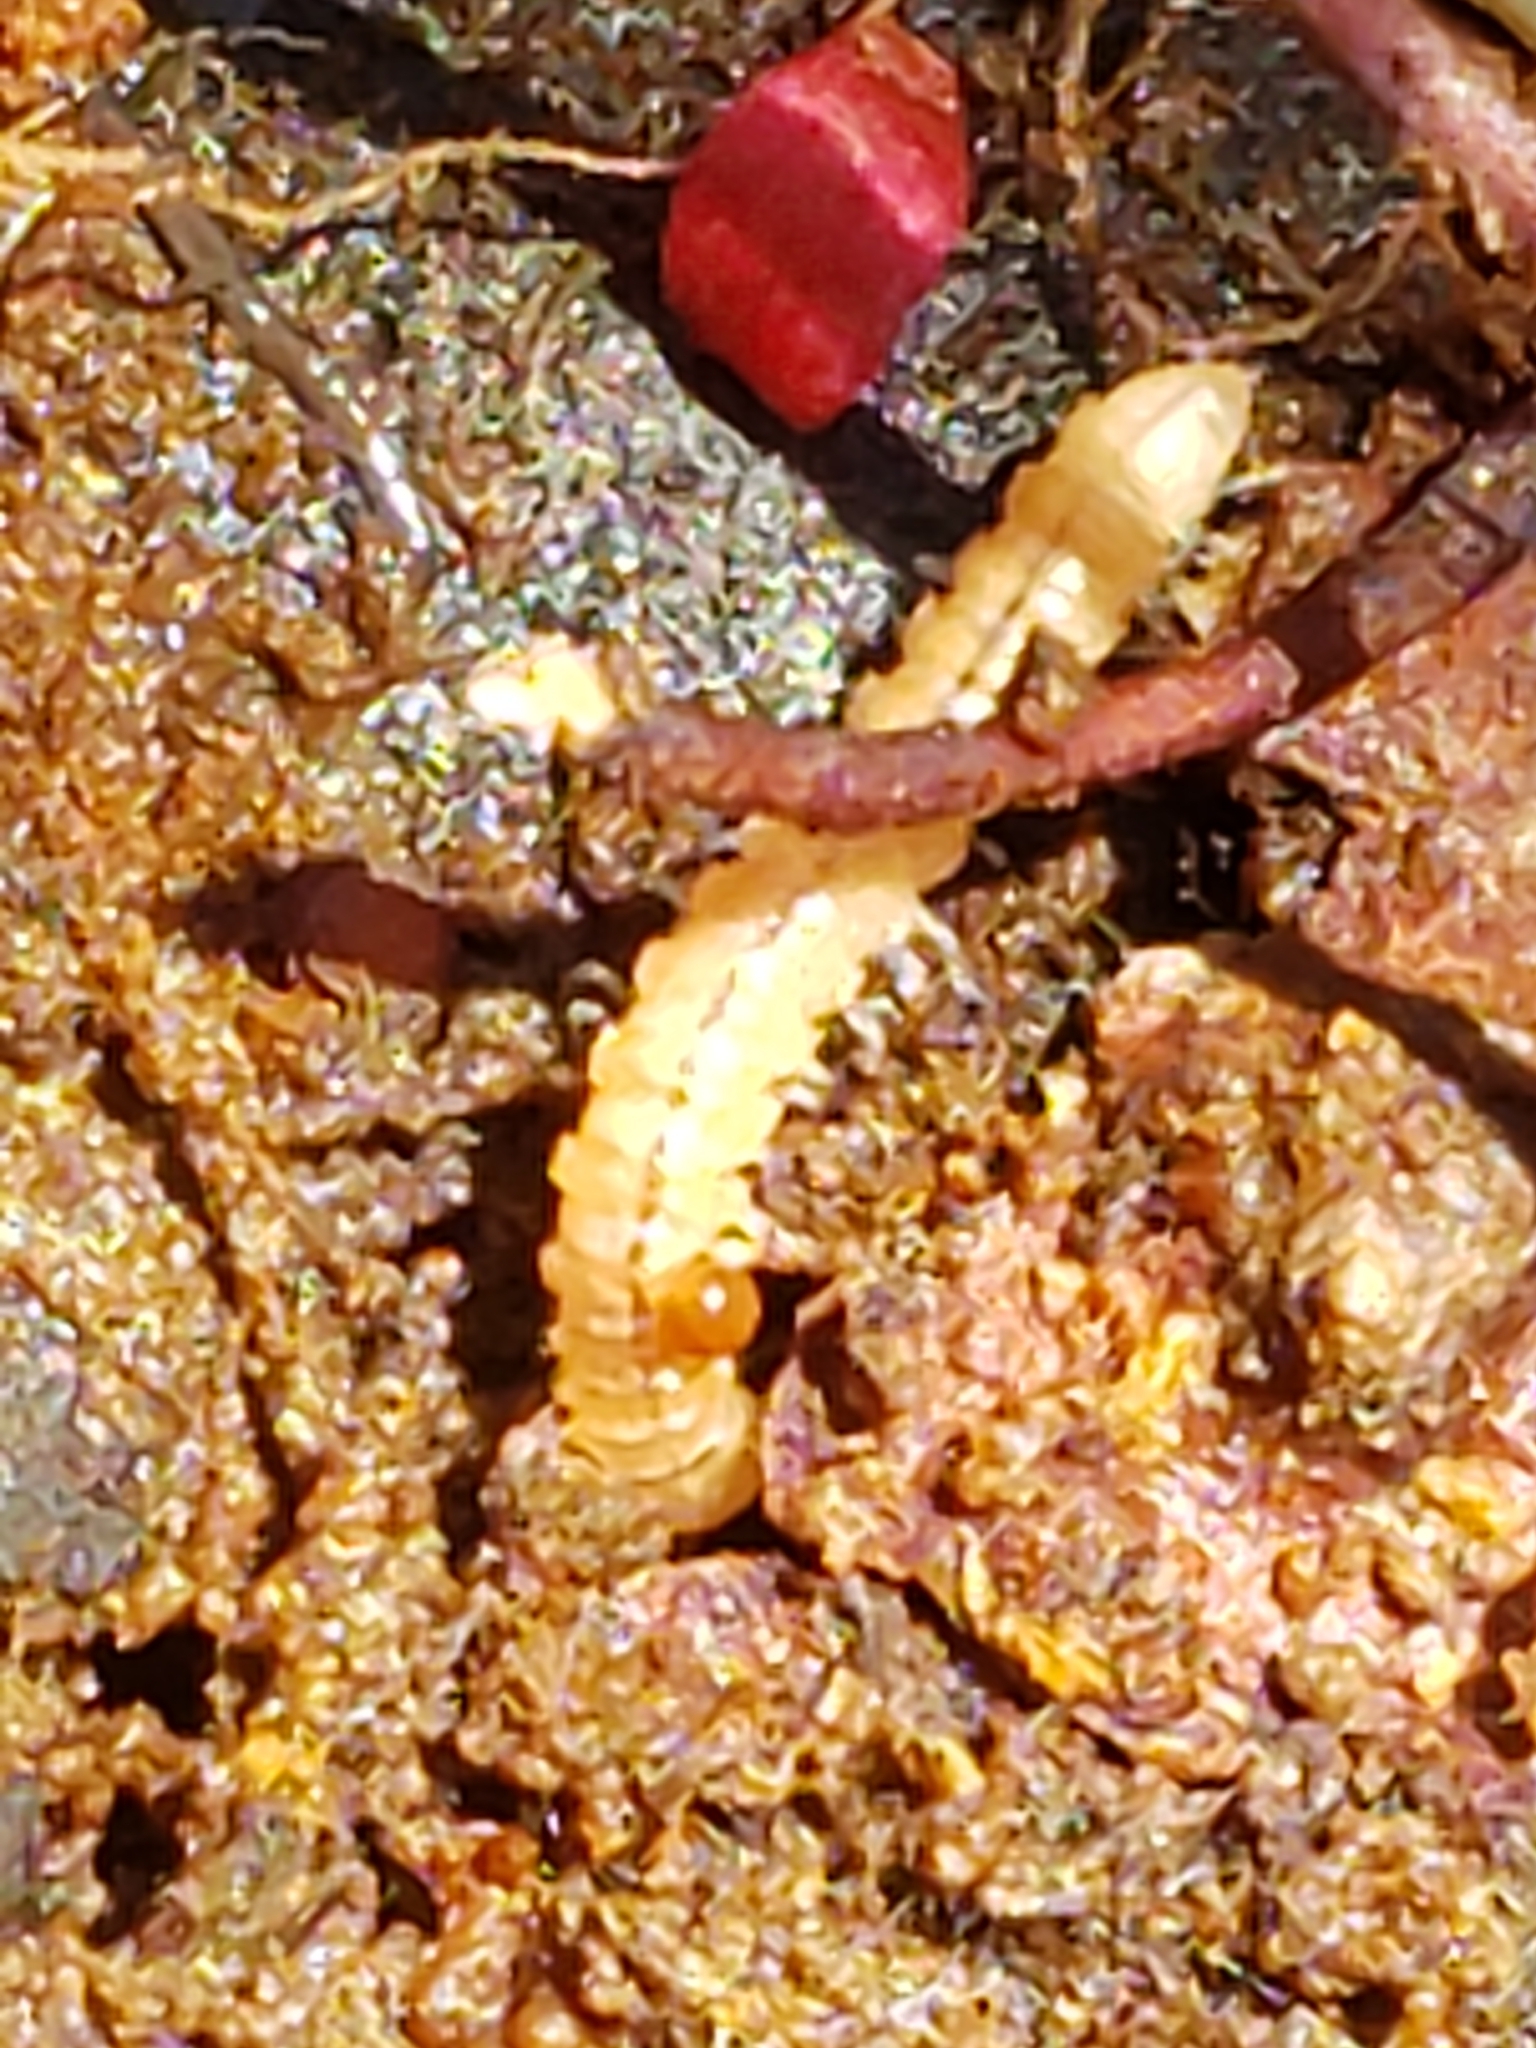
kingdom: Animalia
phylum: Arthropoda
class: Diplopoda
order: Polydesmida
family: Paradoxosomatidae
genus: Oxidus
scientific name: Oxidus gracilis
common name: Greenhouse millipede
